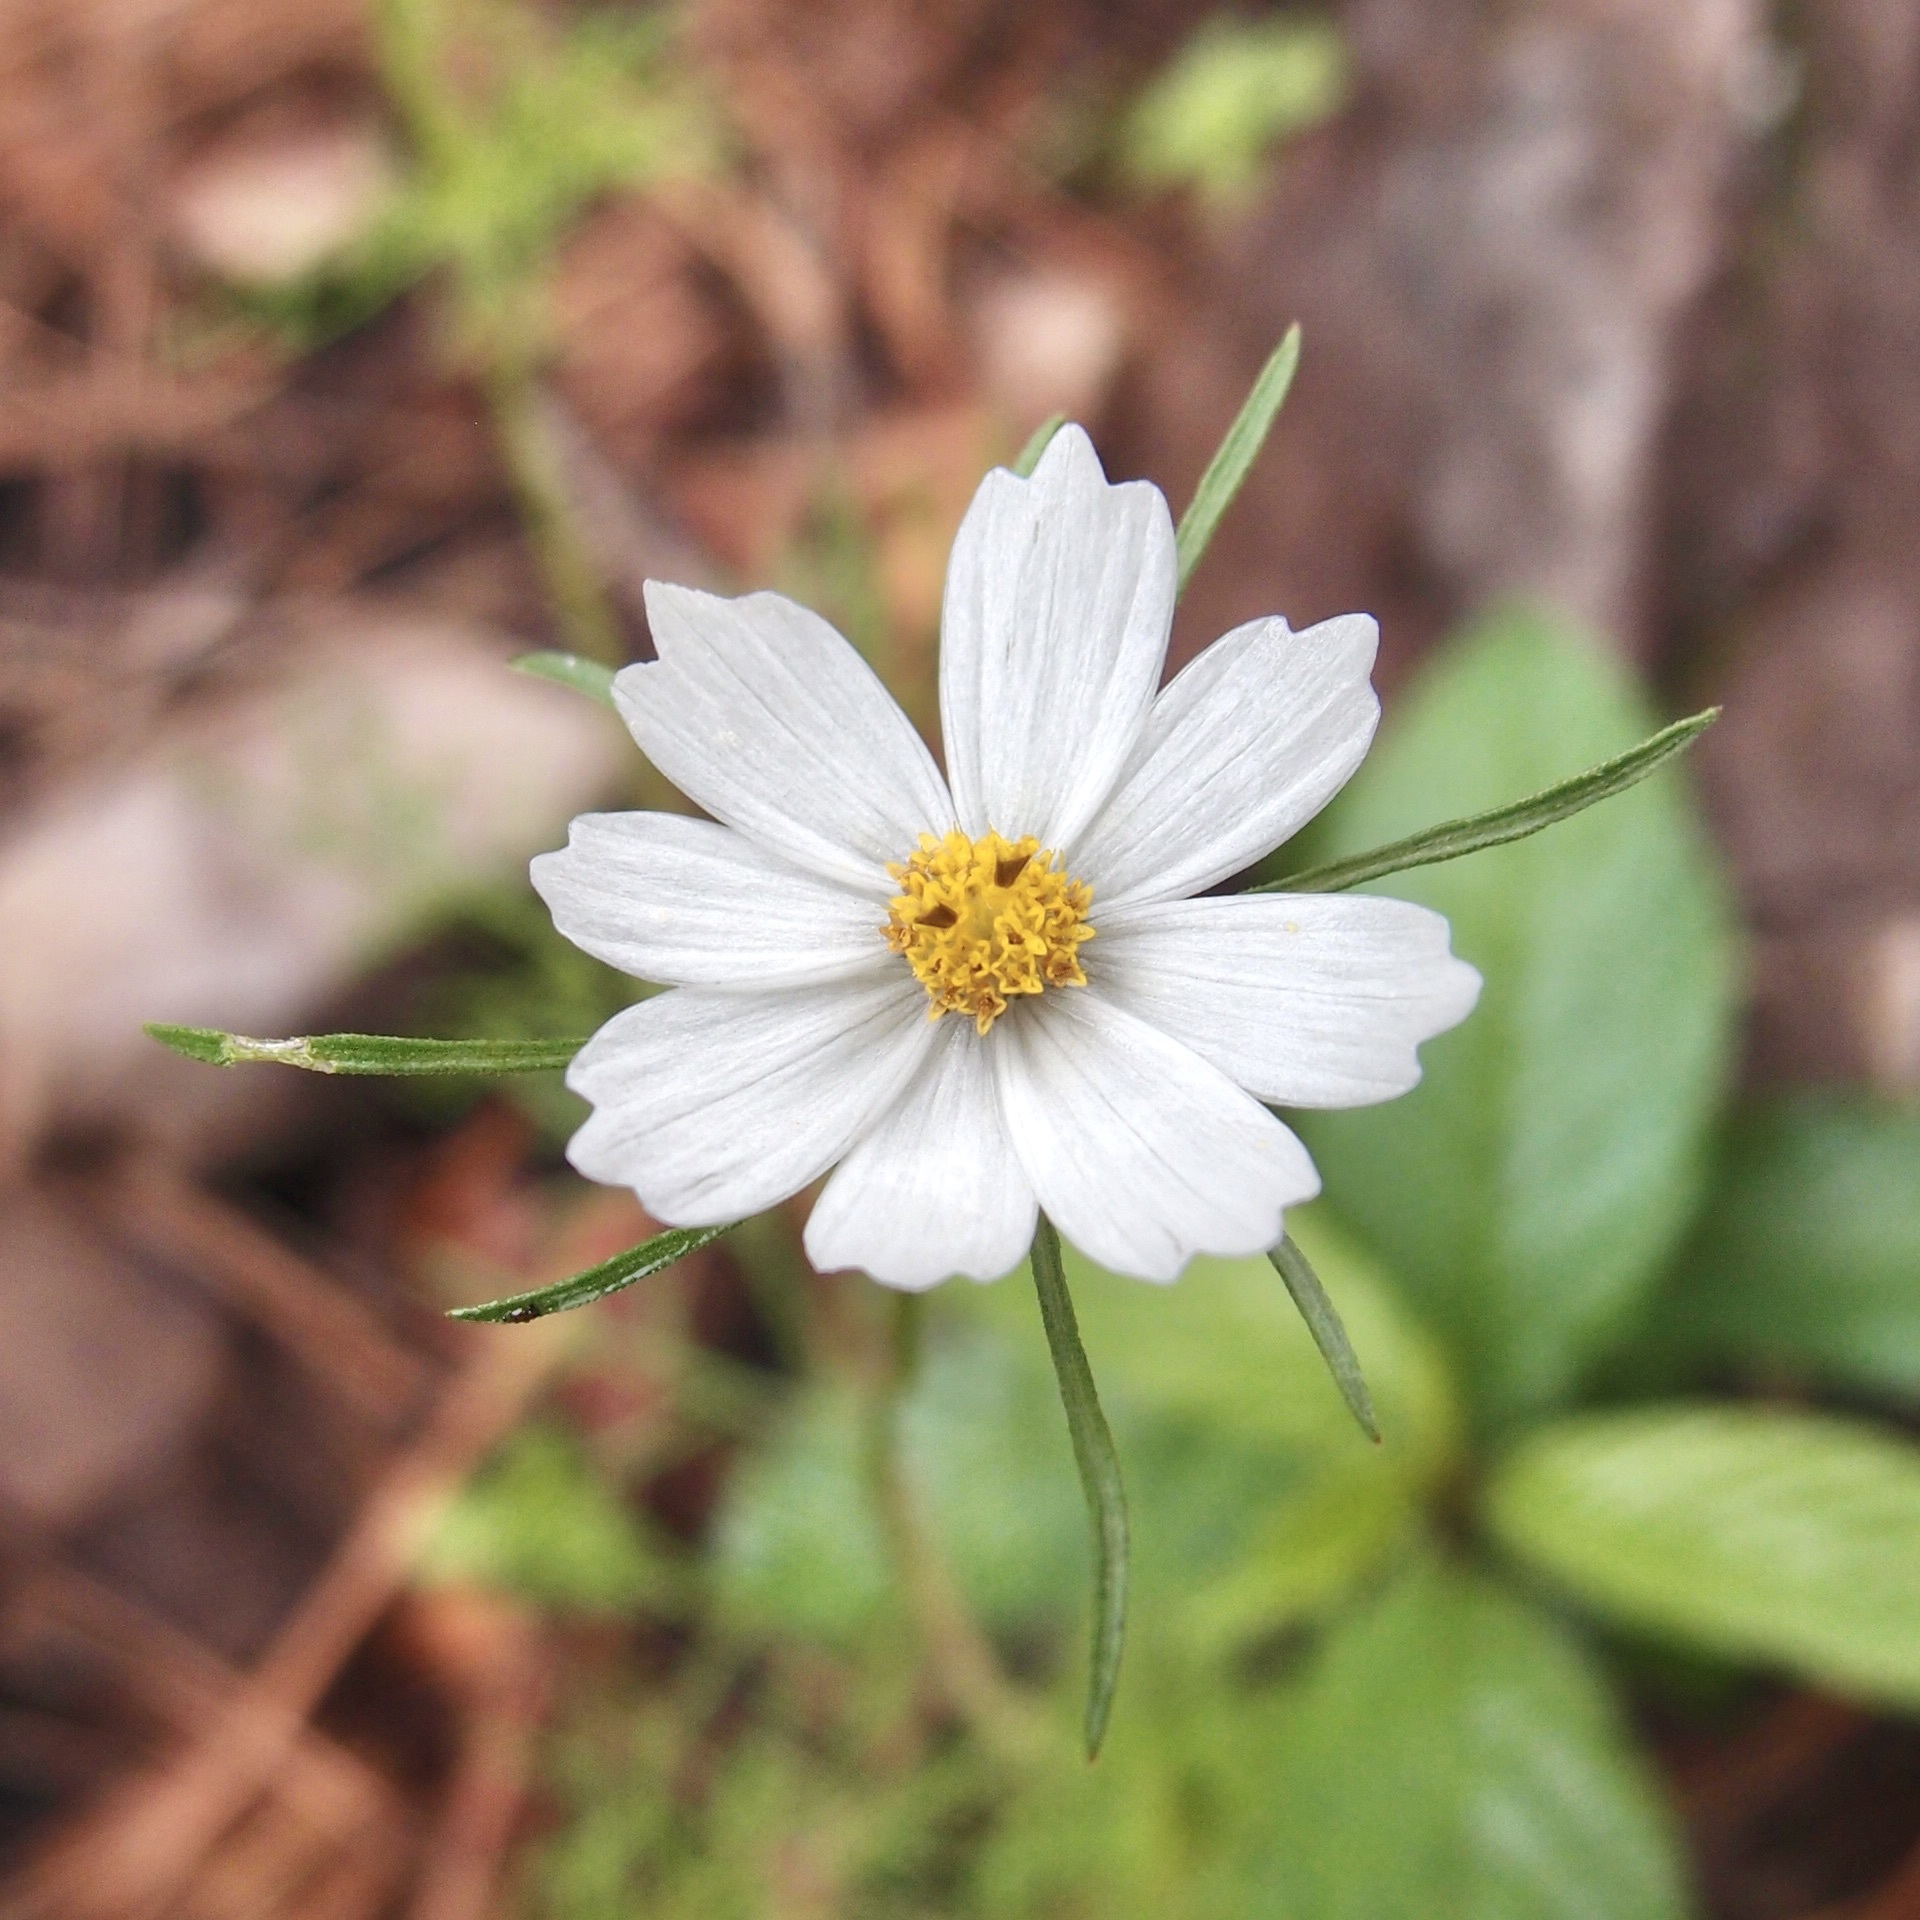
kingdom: Plantae
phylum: Tracheophyta
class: Magnoliopsida
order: Asterales
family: Asteraceae
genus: Cosmos
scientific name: Cosmos parviflorus
